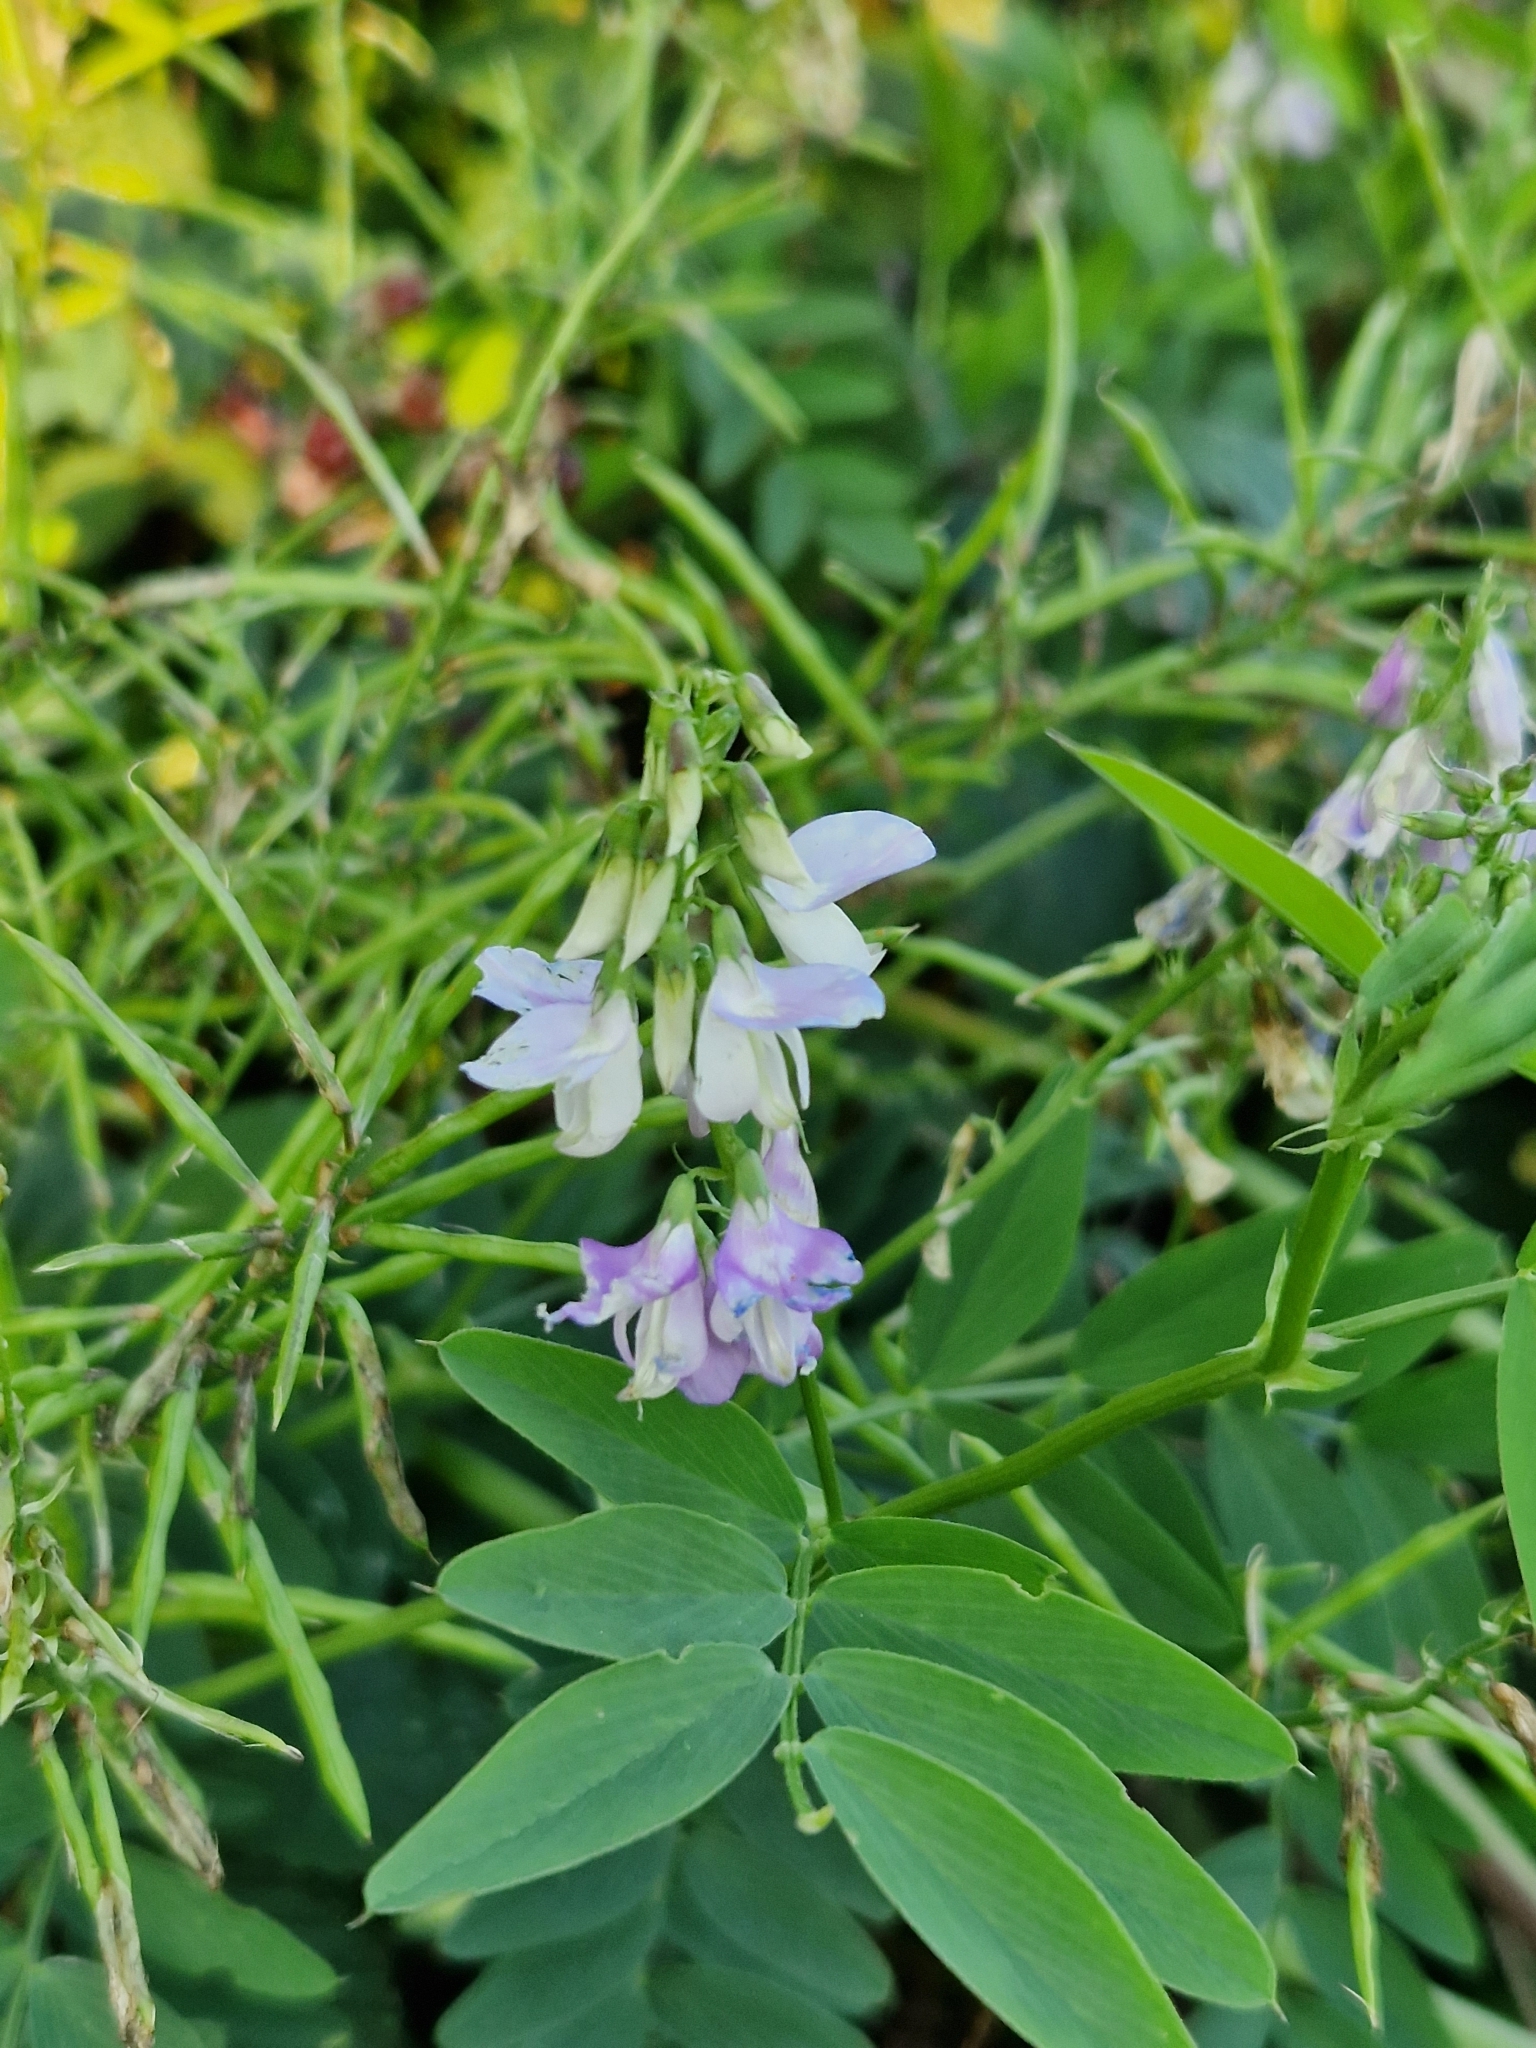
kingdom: Plantae
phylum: Tracheophyta
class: Magnoliopsida
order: Fabales
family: Fabaceae
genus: Galega
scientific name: Galega officinalis
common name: Goat's-rue
